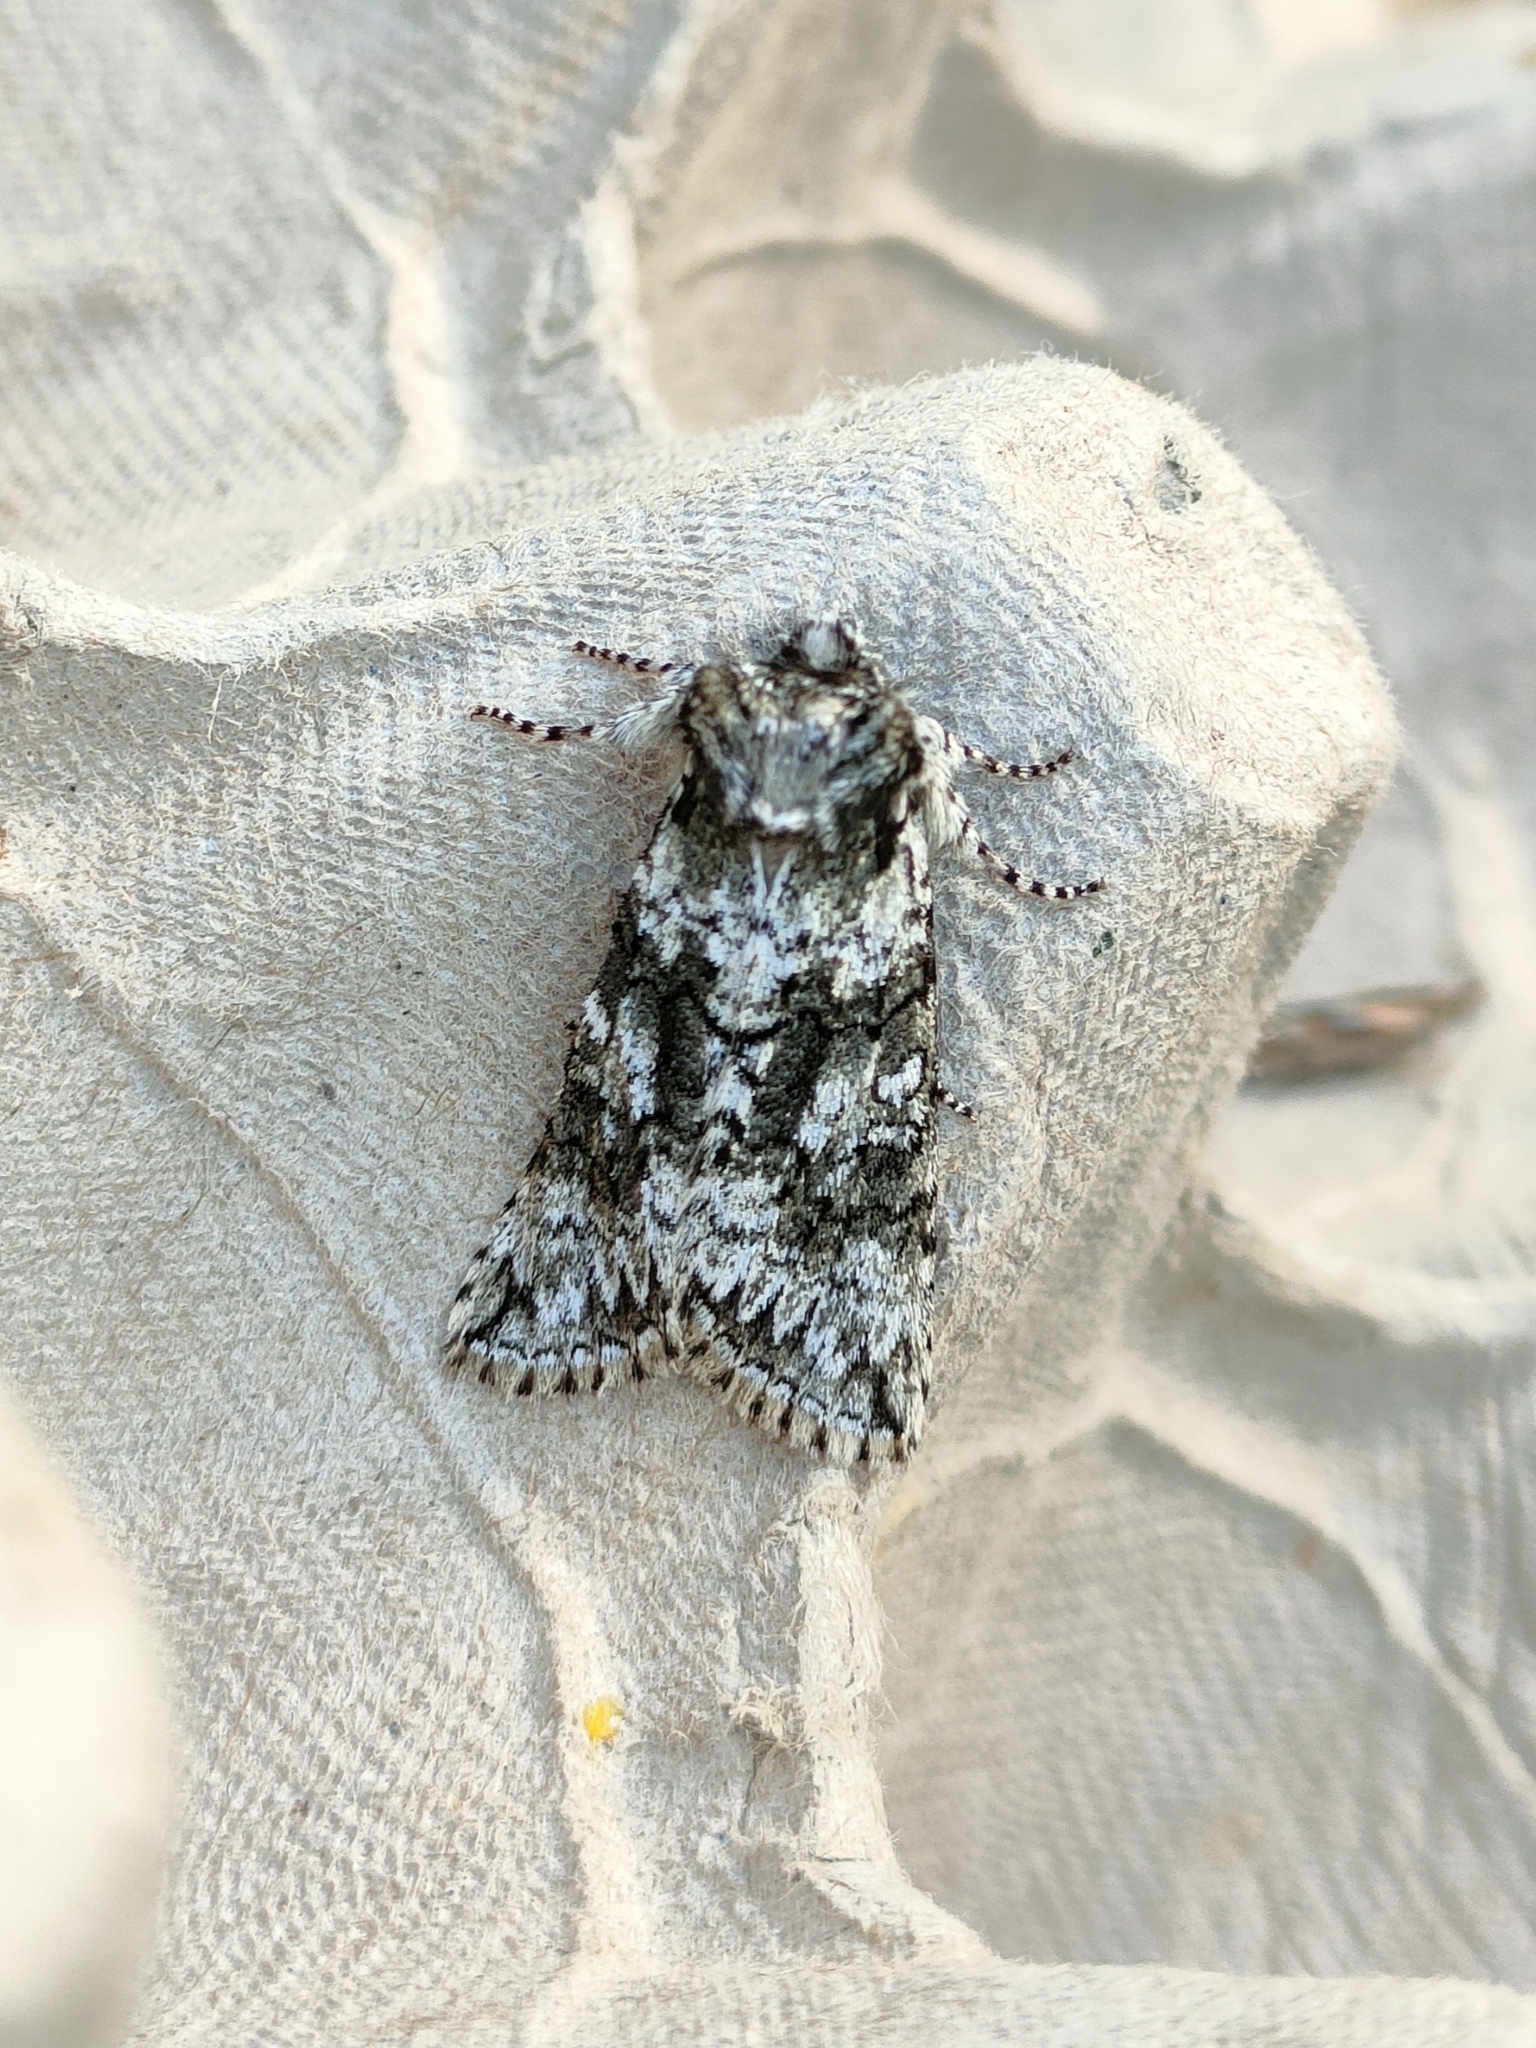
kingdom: Animalia
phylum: Arthropoda
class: Insecta
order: Lepidoptera
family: Drepanidae
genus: Polyploca
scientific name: Polyploca ridens
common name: Frosted green
